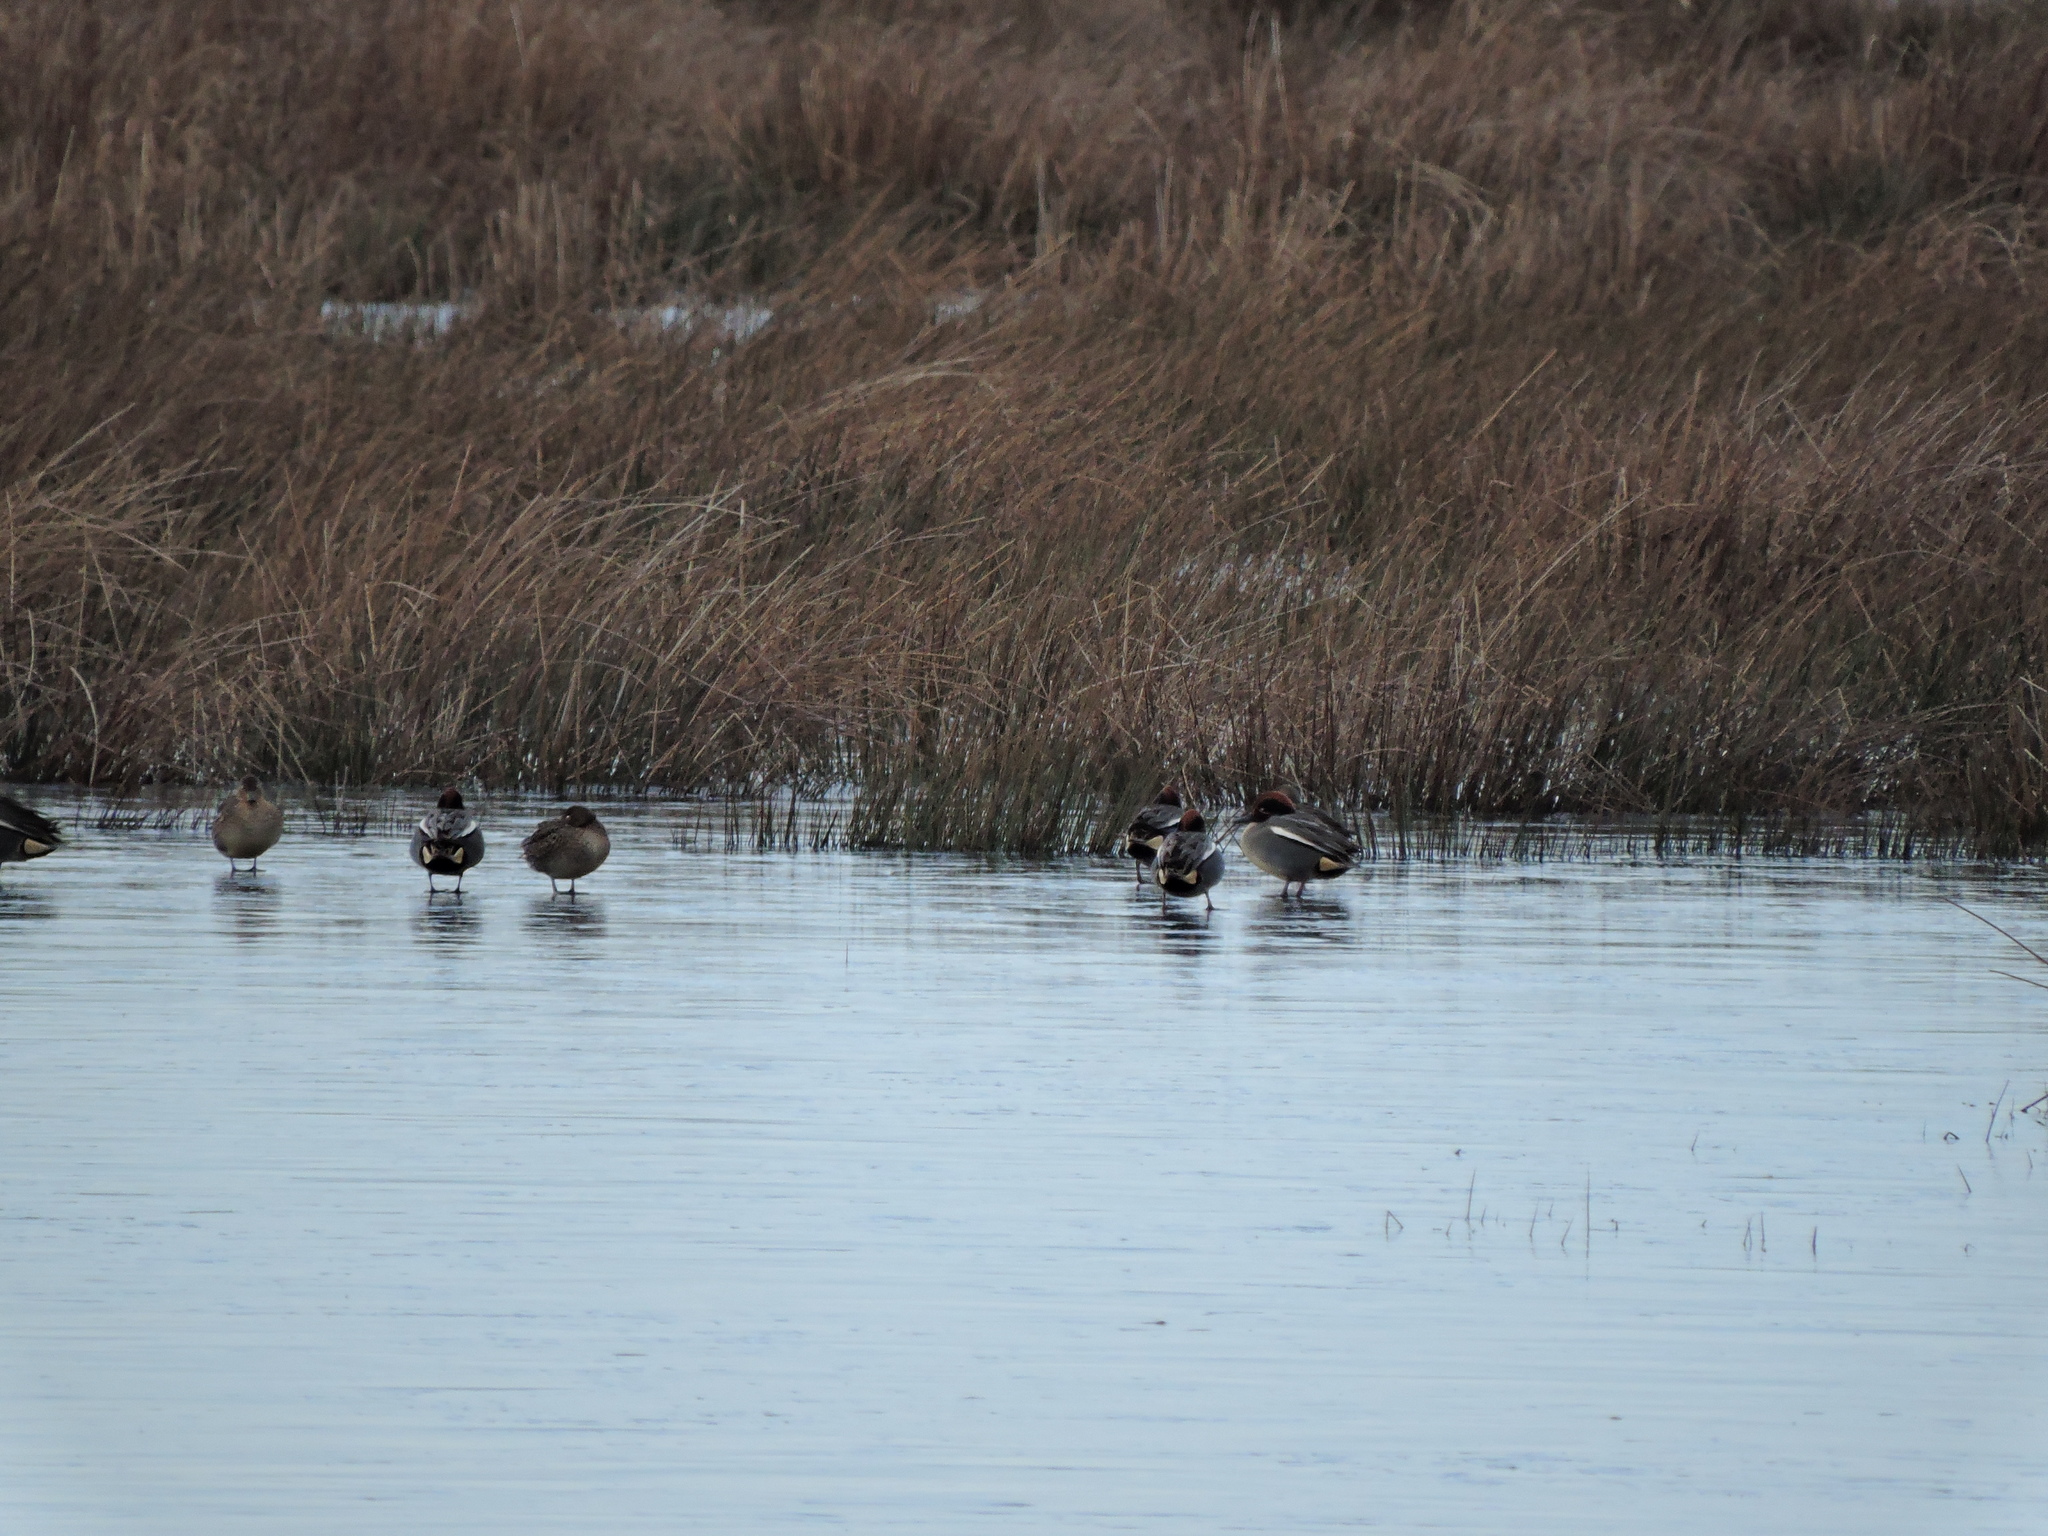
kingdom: Animalia
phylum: Chordata
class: Aves
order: Anseriformes
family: Anatidae
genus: Anas
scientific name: Anas crecca
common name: Eurasian teal
